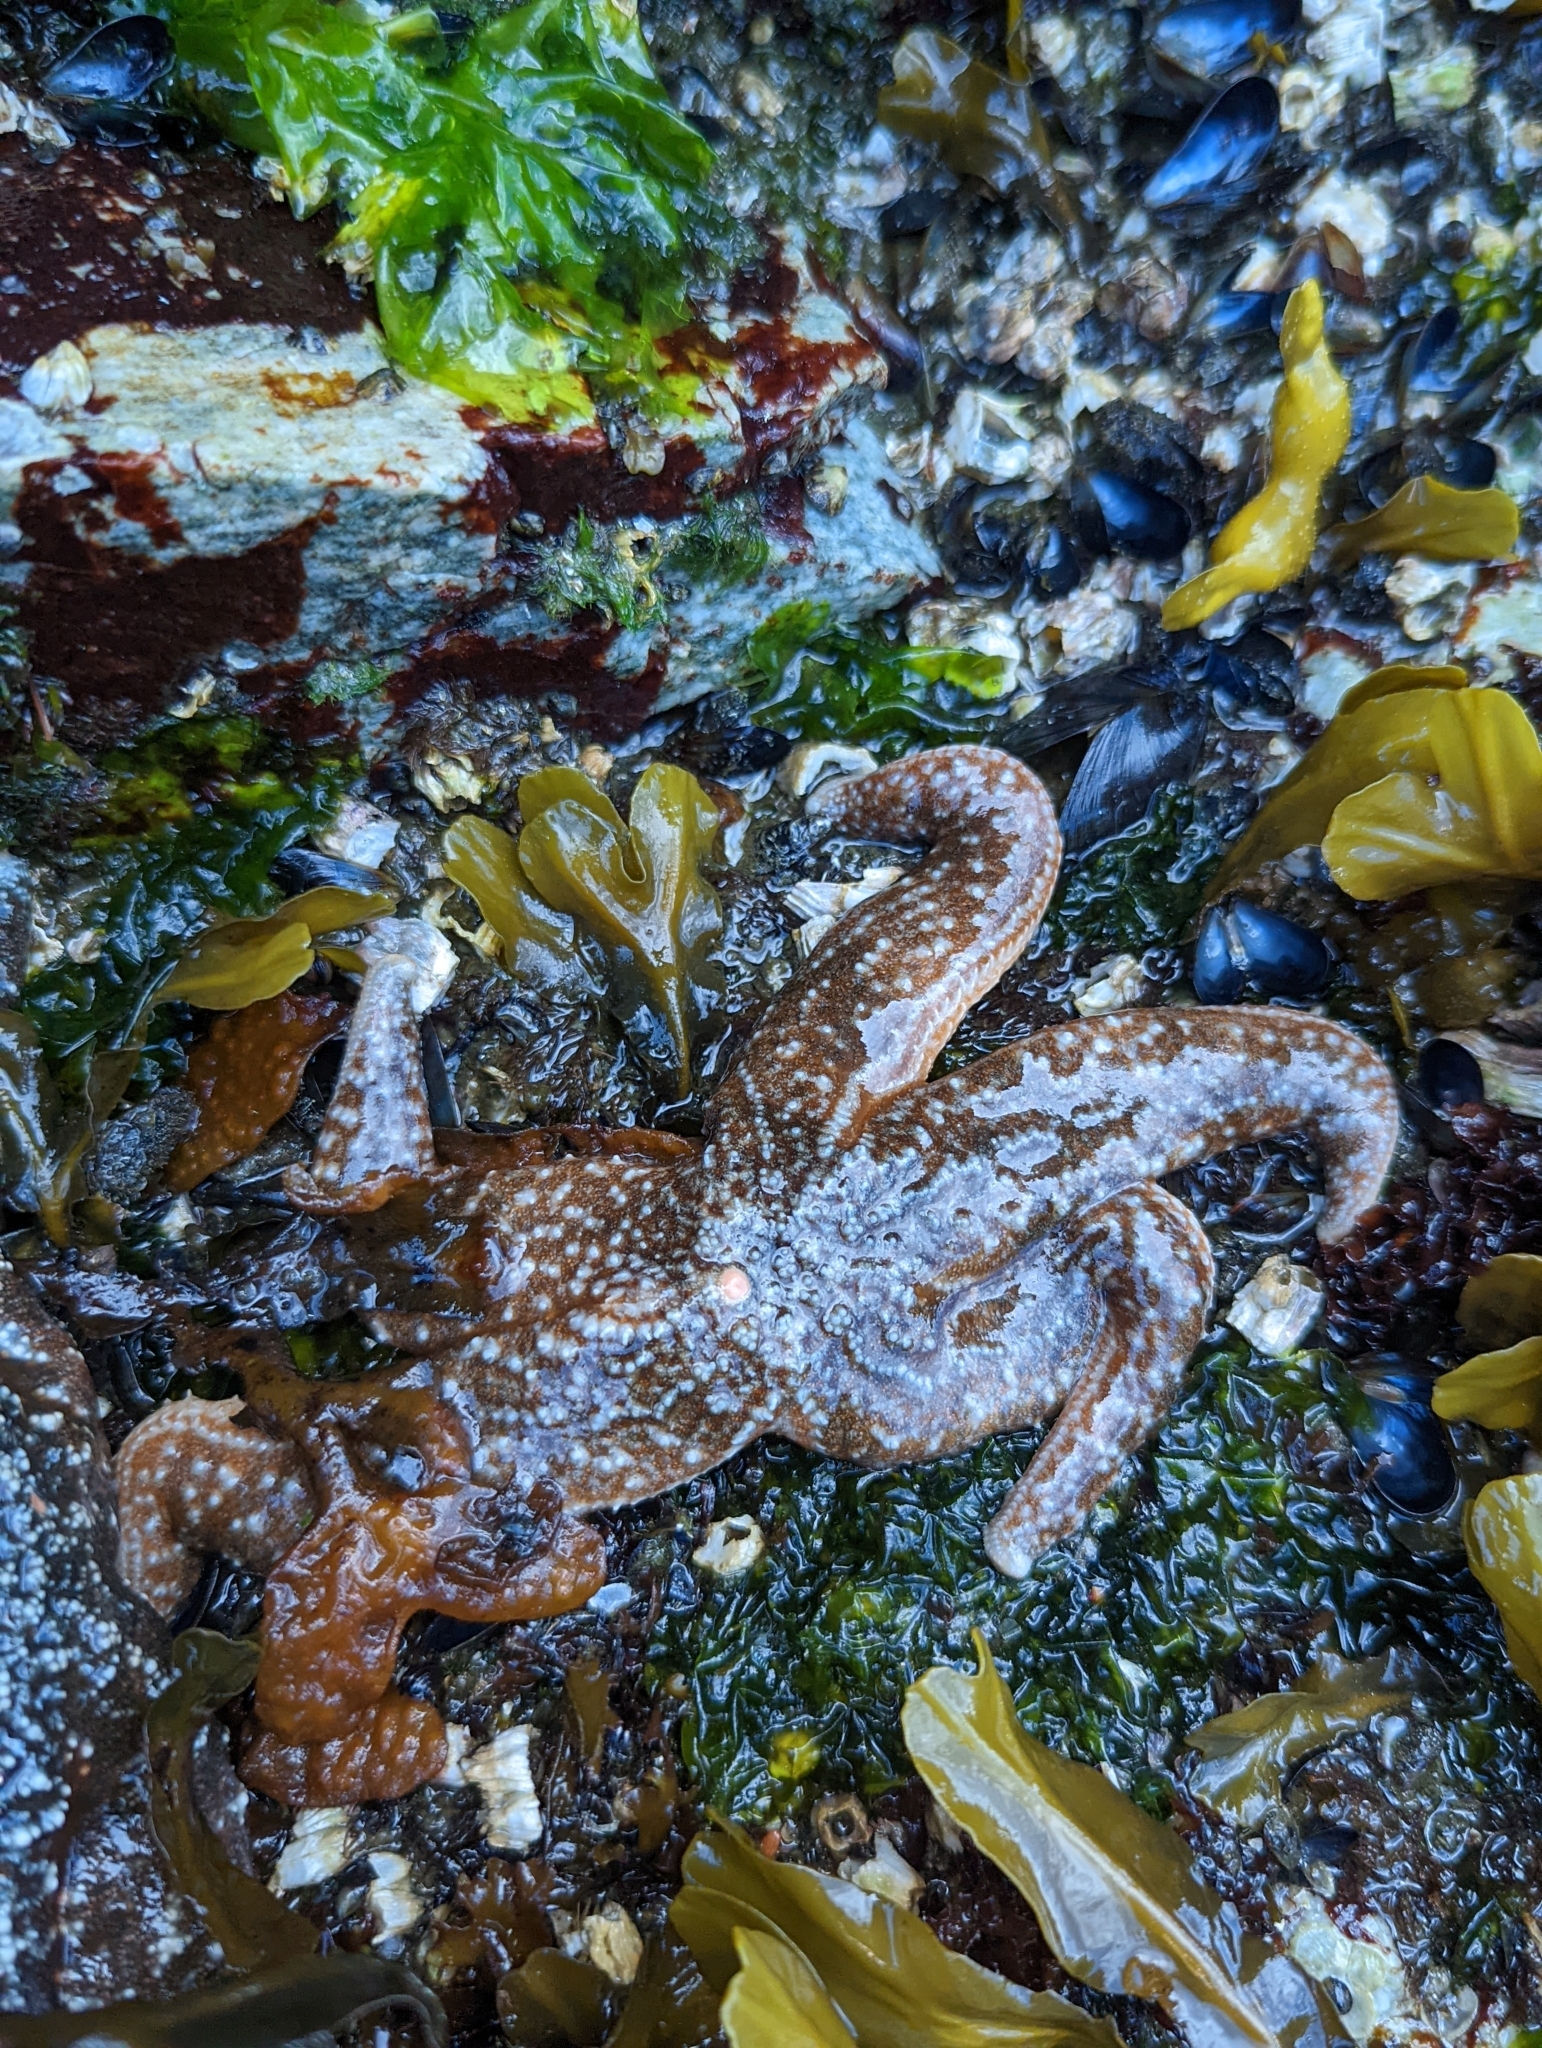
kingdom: Animalia
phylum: Echinodermata
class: Asteroidea
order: Forcipulatida
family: Asteriidae
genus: Evasterias
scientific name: Evasterias troschelii
